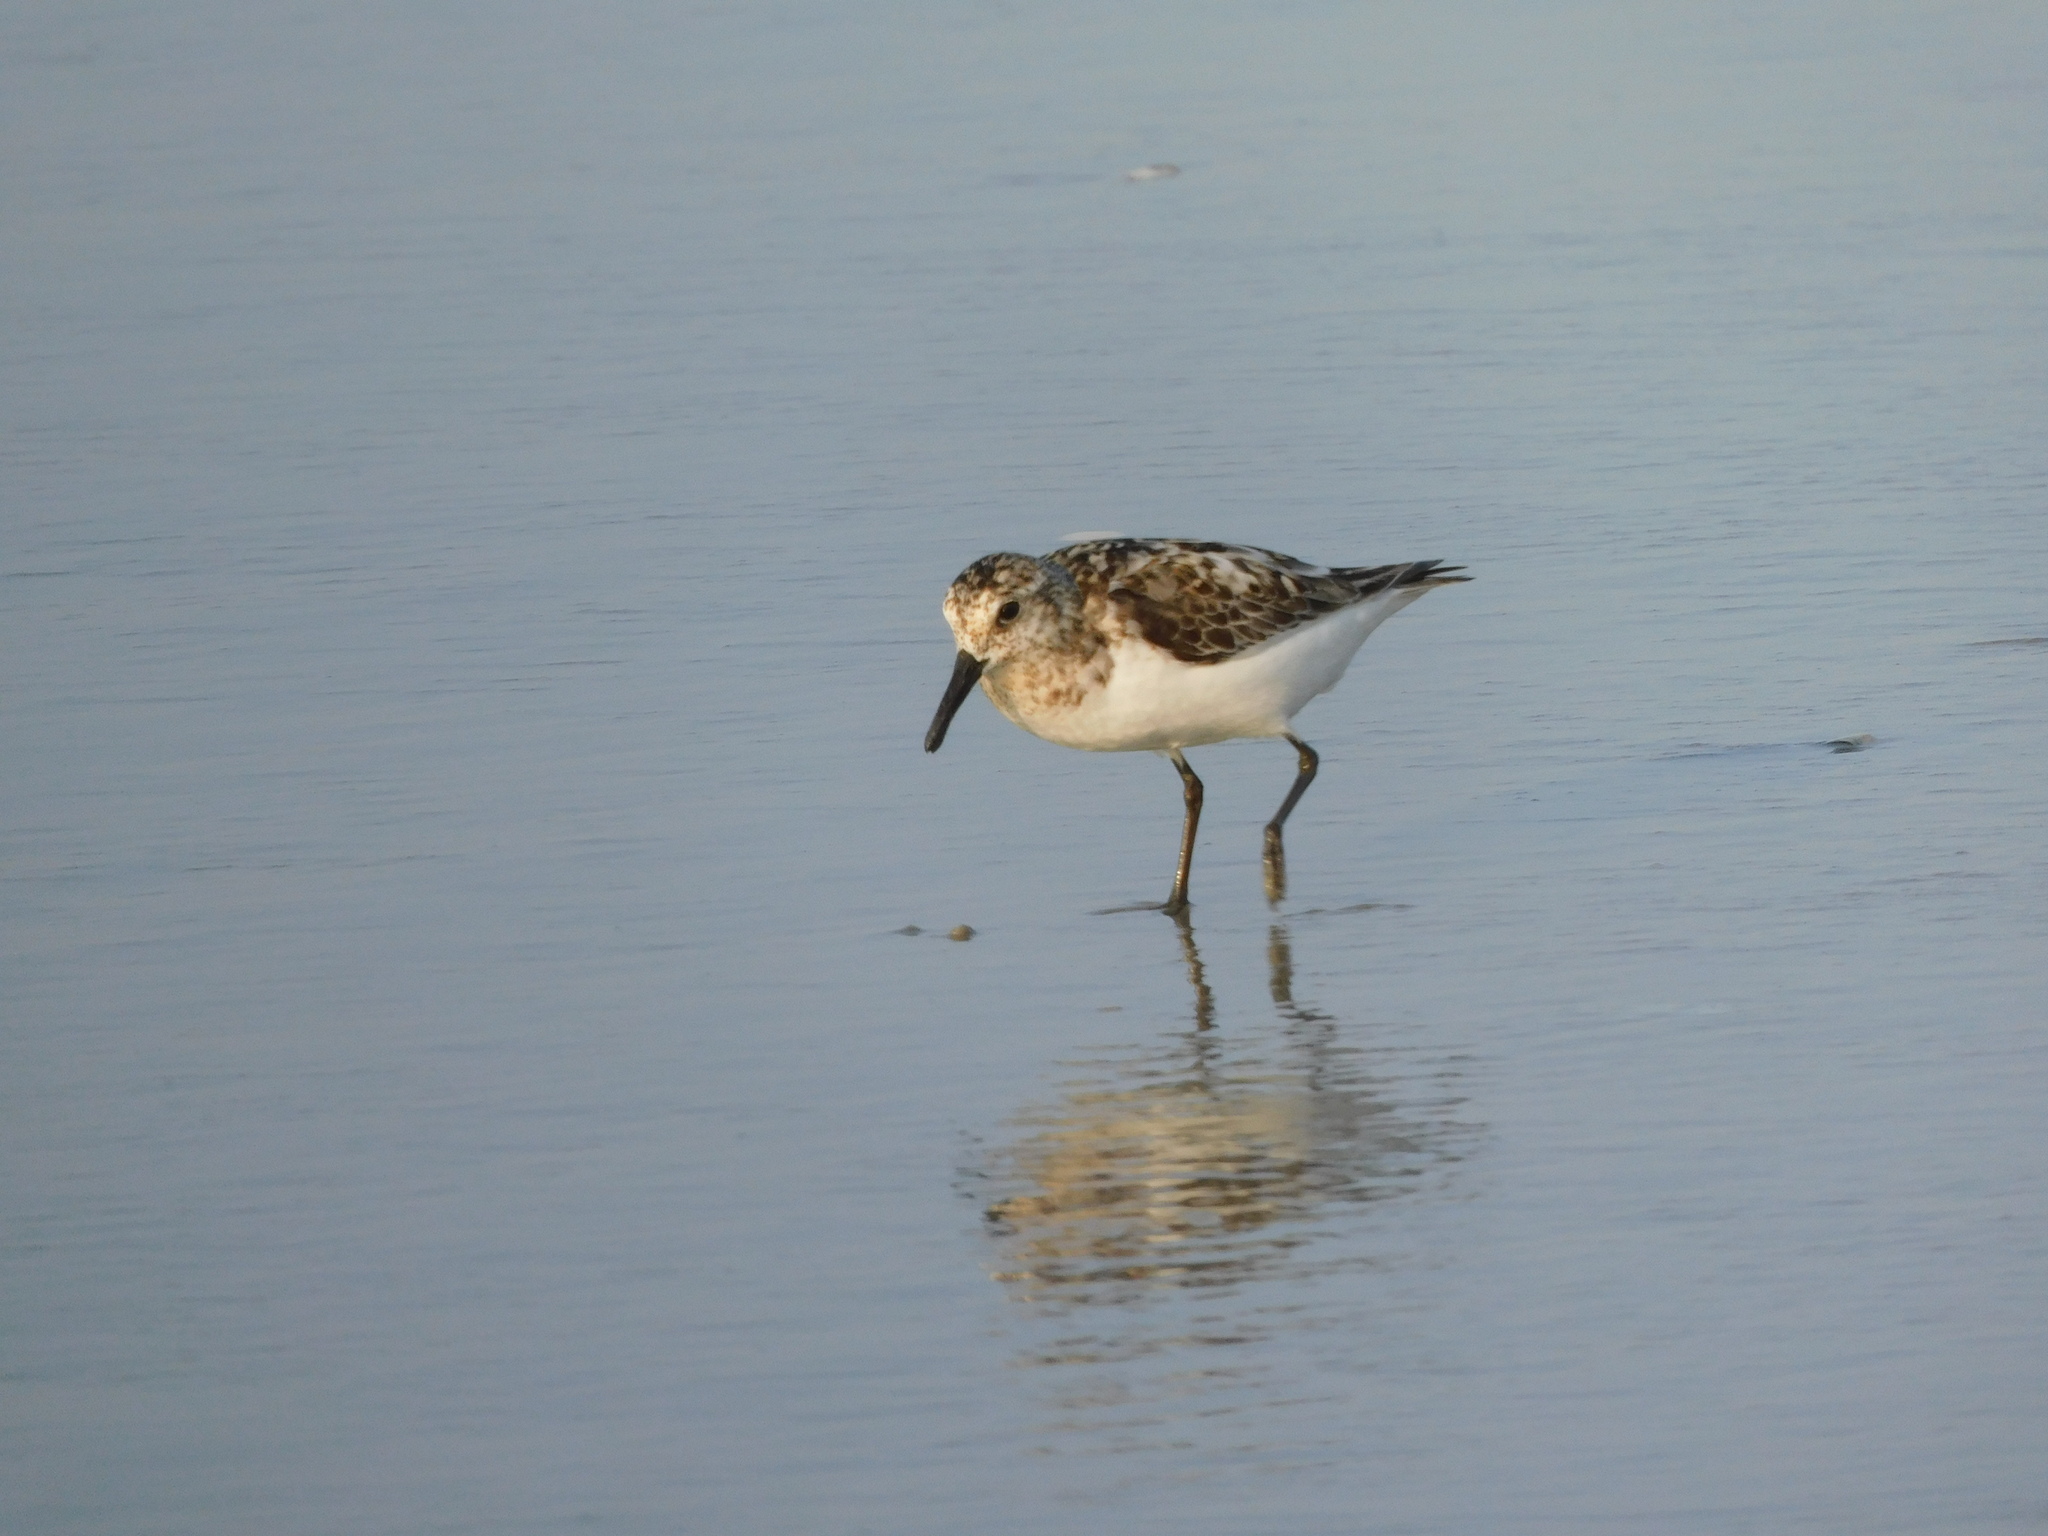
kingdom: Animalia
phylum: Chordata
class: Aves
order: Charadriiformes
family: Scolopacidae
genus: Calidris
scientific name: Calidris alba
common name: Sanderling
